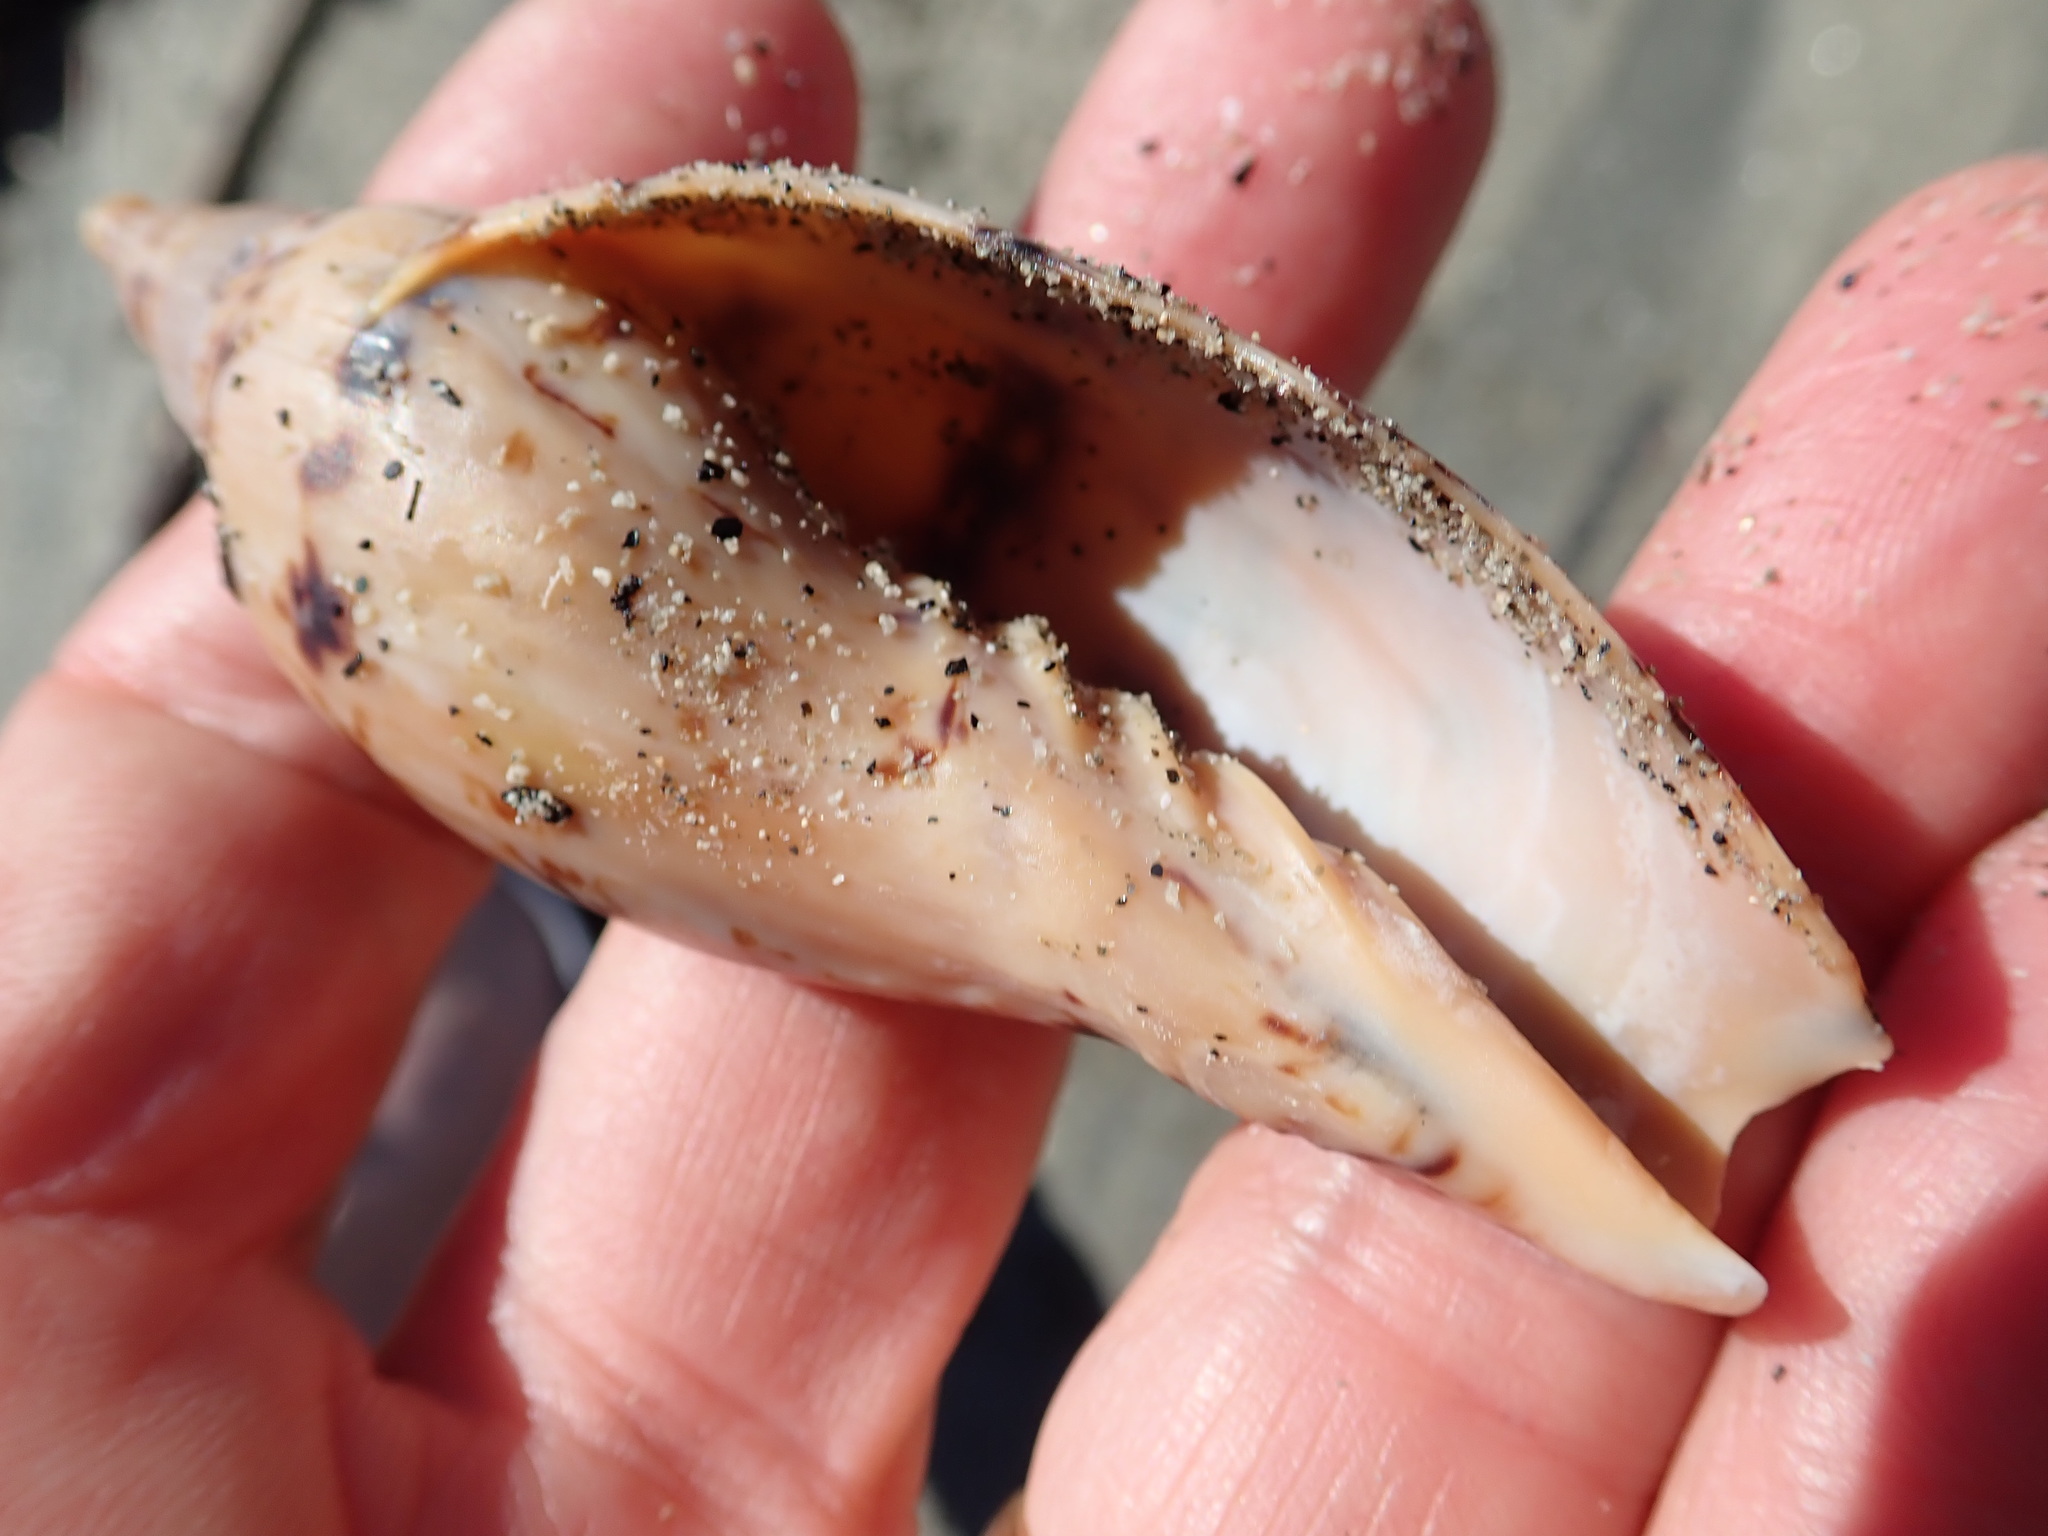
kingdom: Animalia
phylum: Mollusca
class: Gastropoda
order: Neogastropoda
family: Volutidae
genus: Alcithoe
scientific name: Alcithoe arabica
